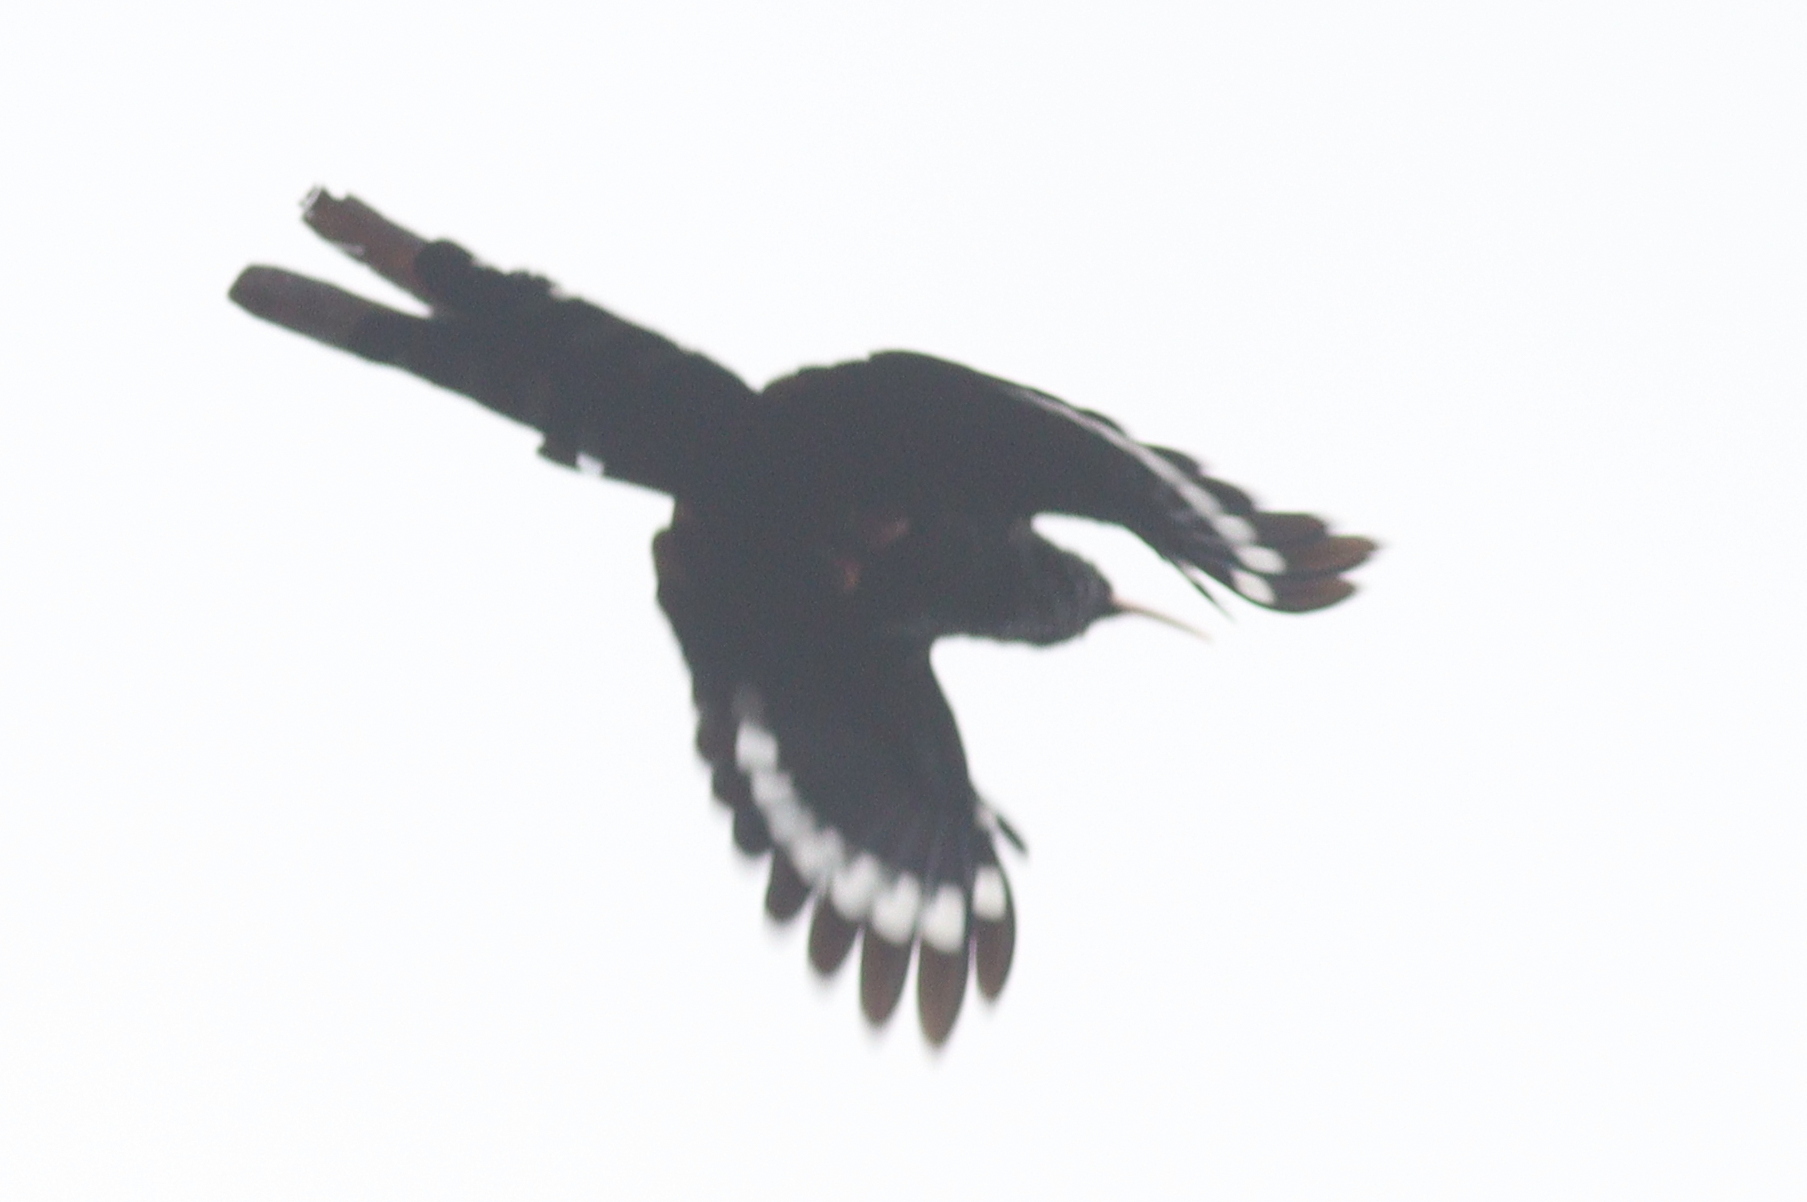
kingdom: Animalia
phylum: Chordata
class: Aves
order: Bucerotiformes
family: Phoeniculidae
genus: Phoeniculus
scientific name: Phoeniculus purpureus
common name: Green woodhoopoe
